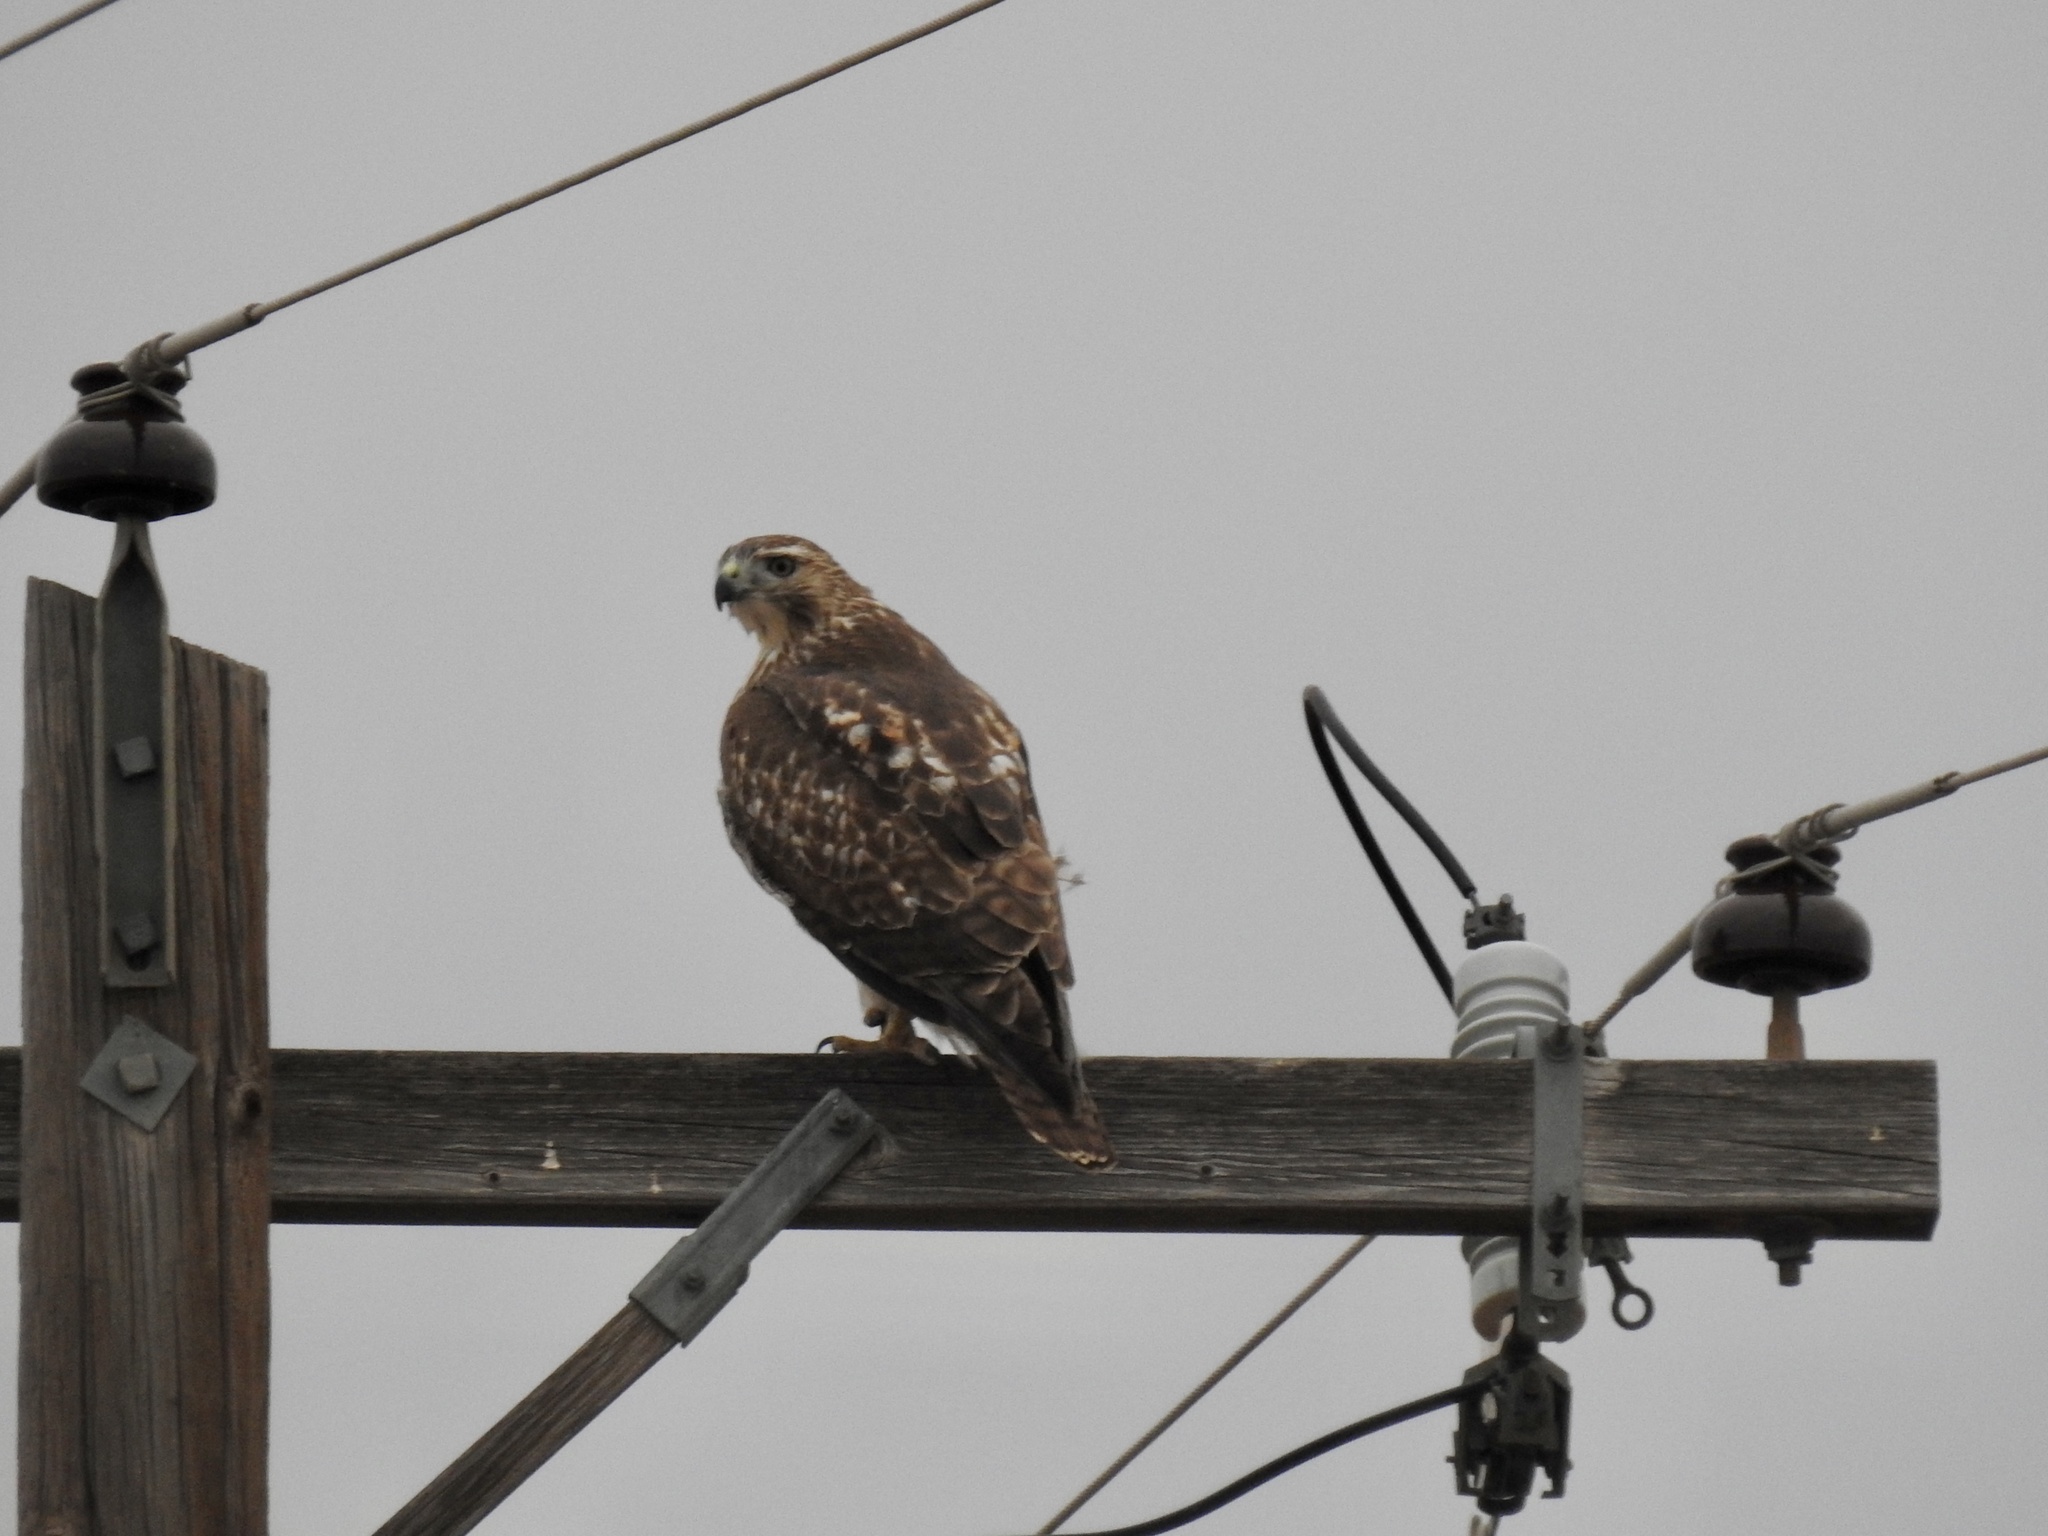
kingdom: Animalia
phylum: Chordata
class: Aves
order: Accipitriformes
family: Accipitridae
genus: Buteo
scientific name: Buteo jamaicensis
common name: Red-tailed hawk
